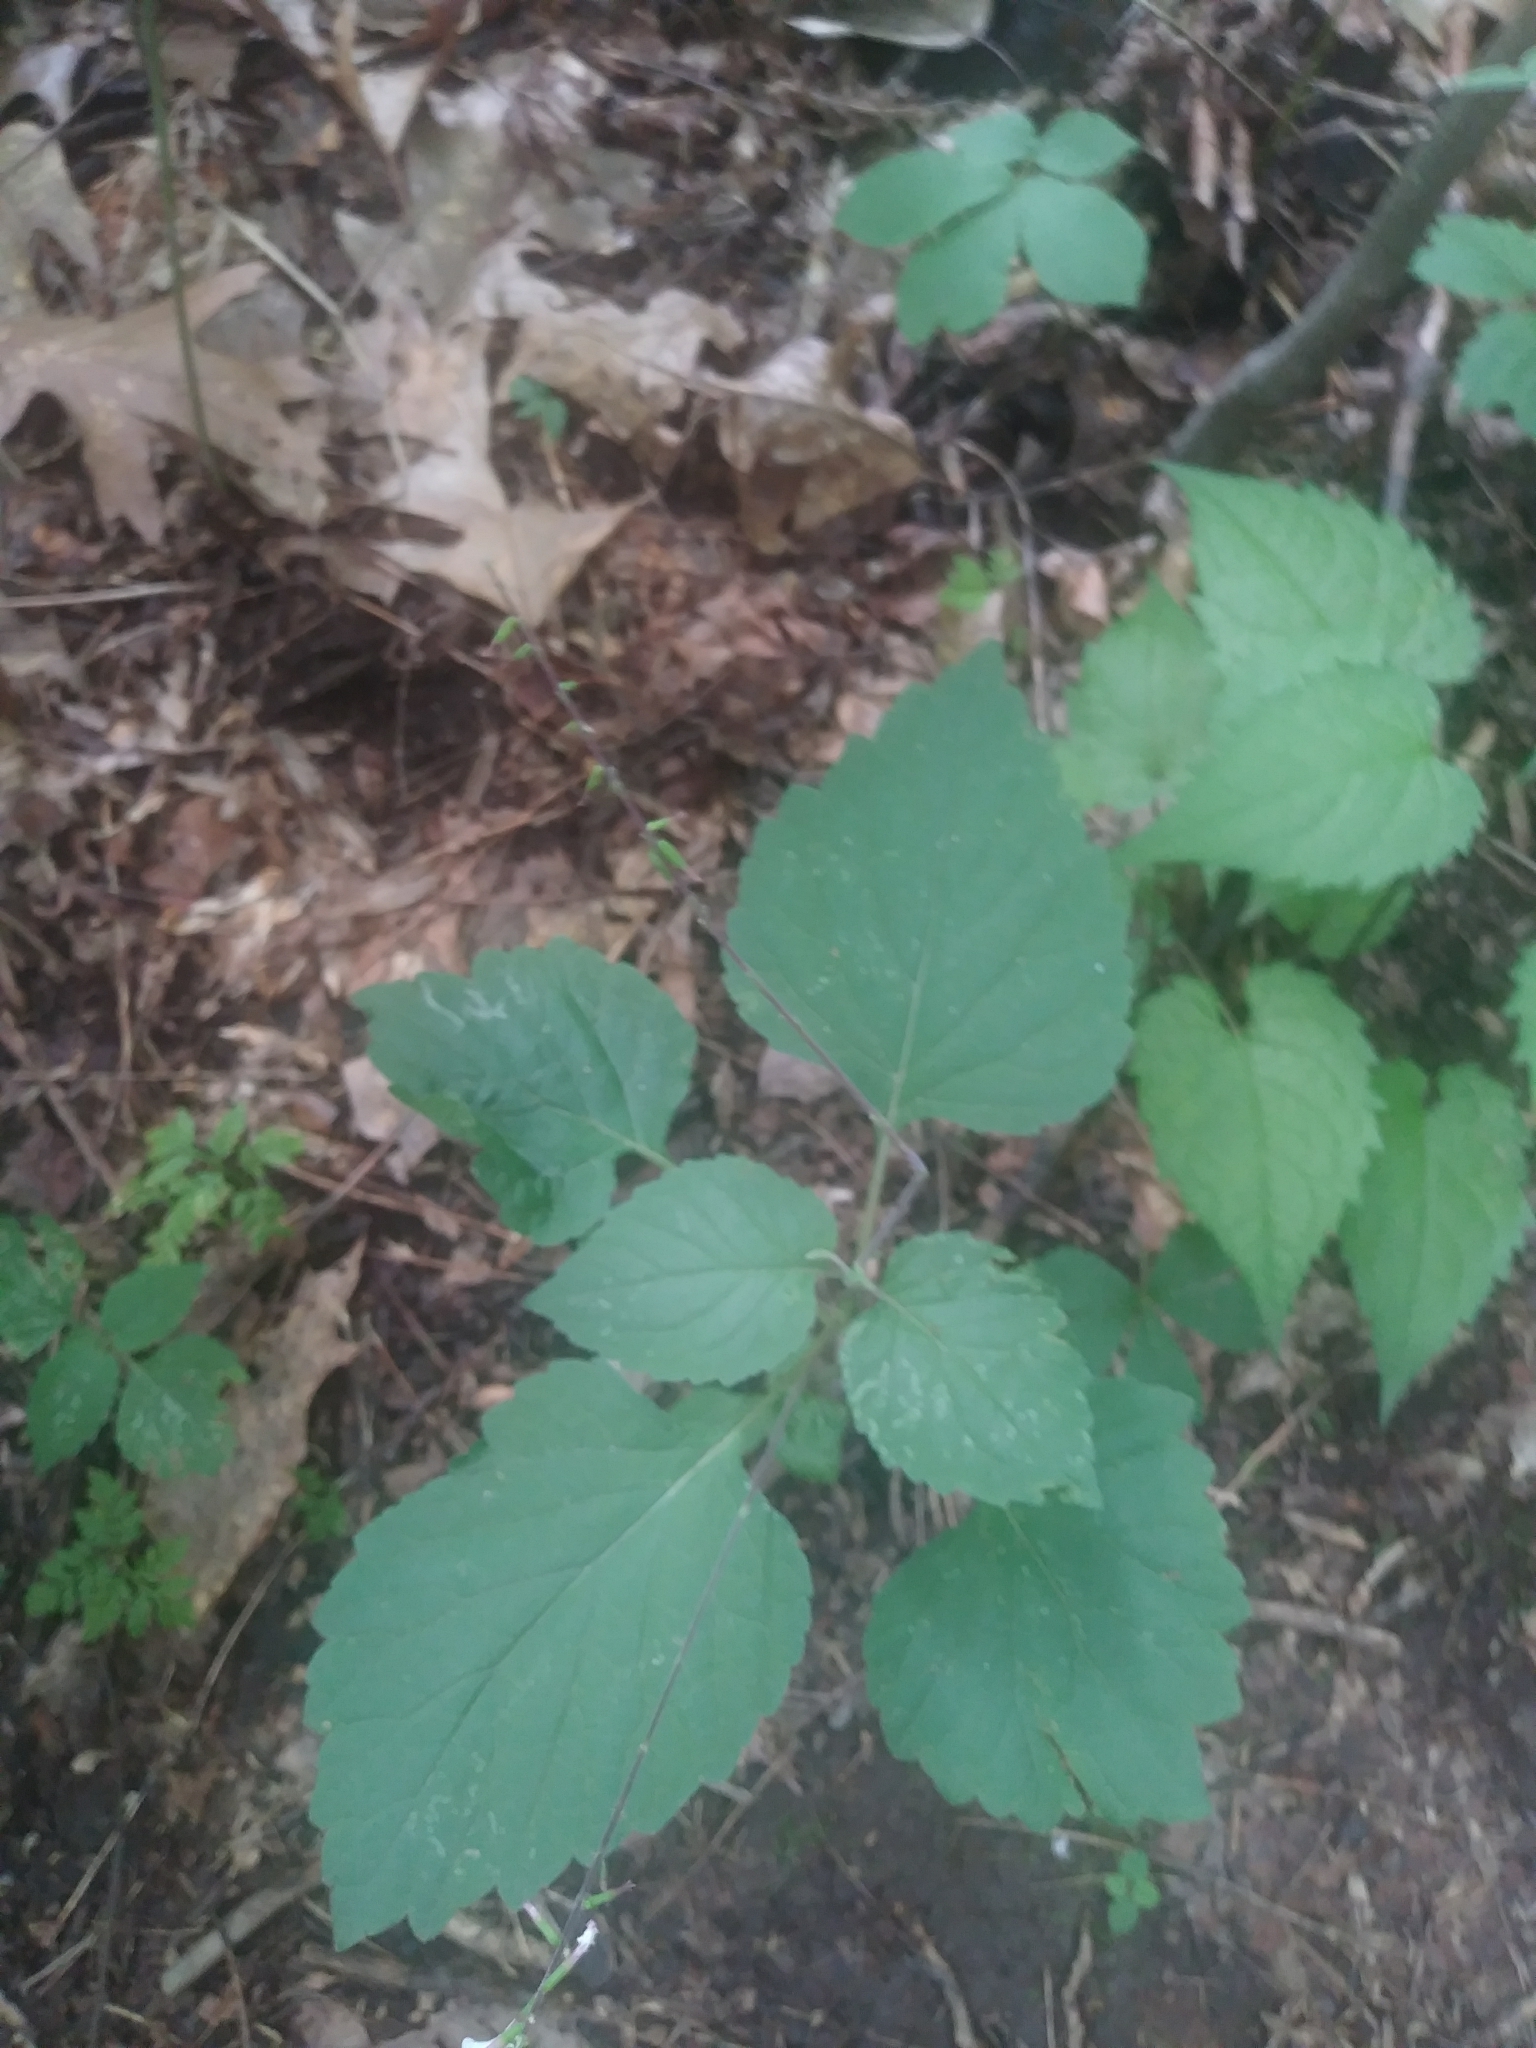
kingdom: Plantae
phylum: Tracheophyta
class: Magnoliopsida
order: Lamiales
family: Phrymaceae
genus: Phryma
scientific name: Phryma leptostachya
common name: American lopseed
